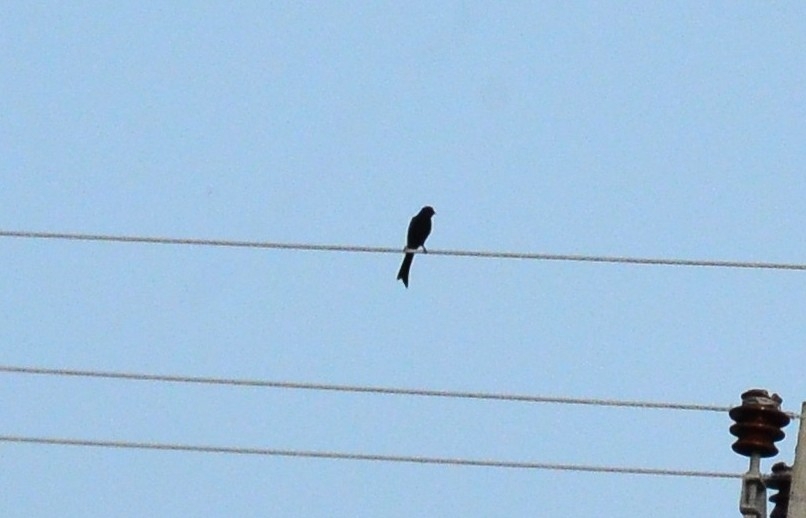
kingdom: Animalia
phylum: Chordata
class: Aves
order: Passeriformes
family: Dicruridae
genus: Dicrurus
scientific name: Dicrurus macrocercus
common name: Black drongo
